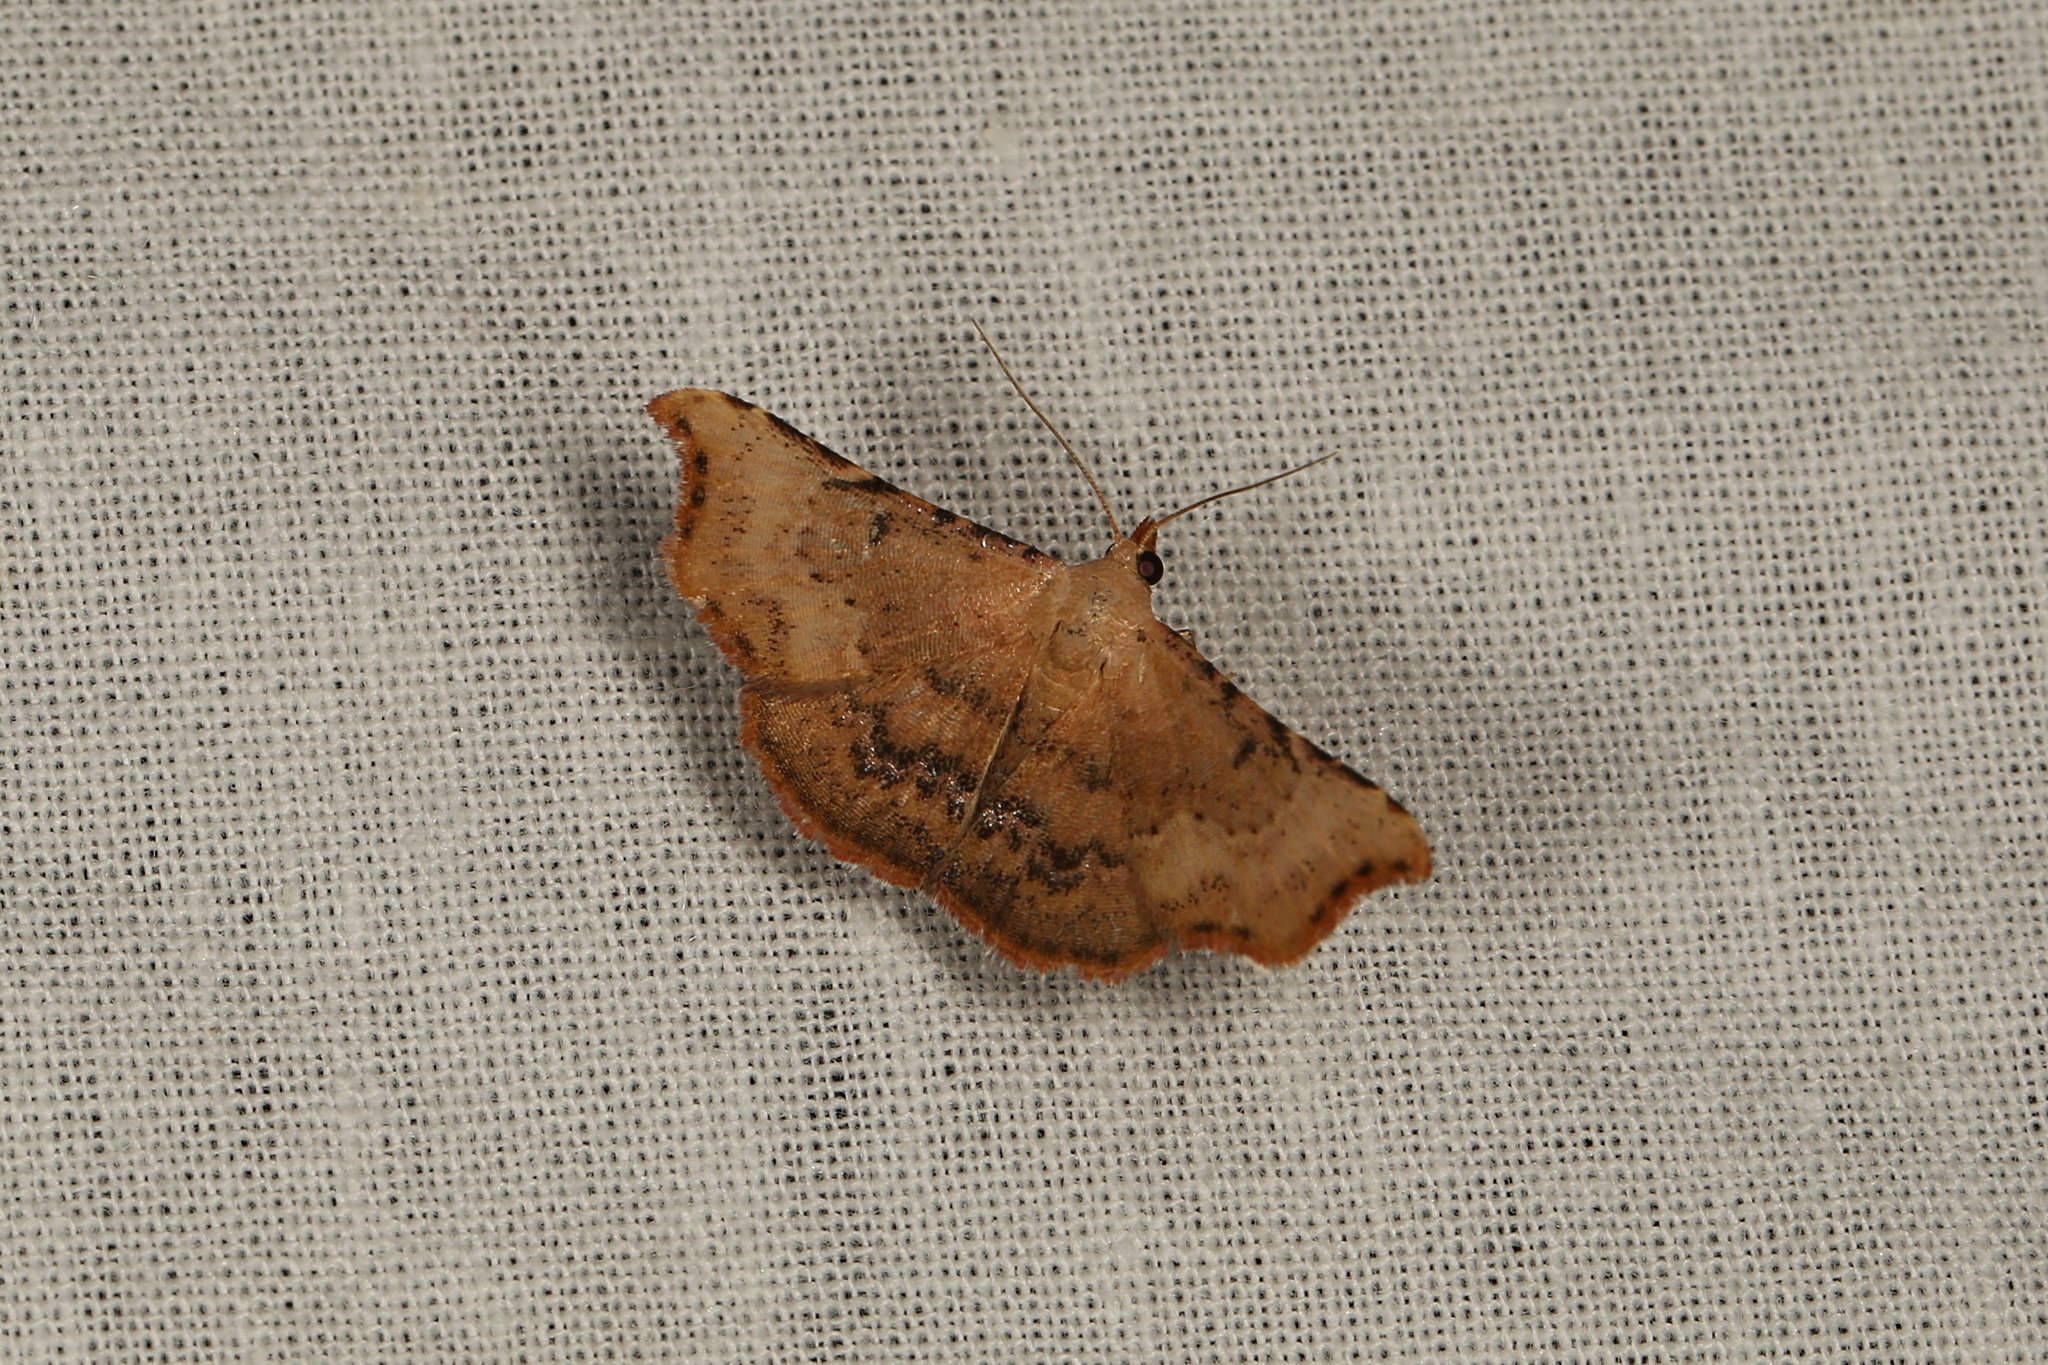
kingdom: Animalia
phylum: Arthropoda
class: Insecta
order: Lepidoptera
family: Erebidae
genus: Corgatha
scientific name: Corgatha dipyra
